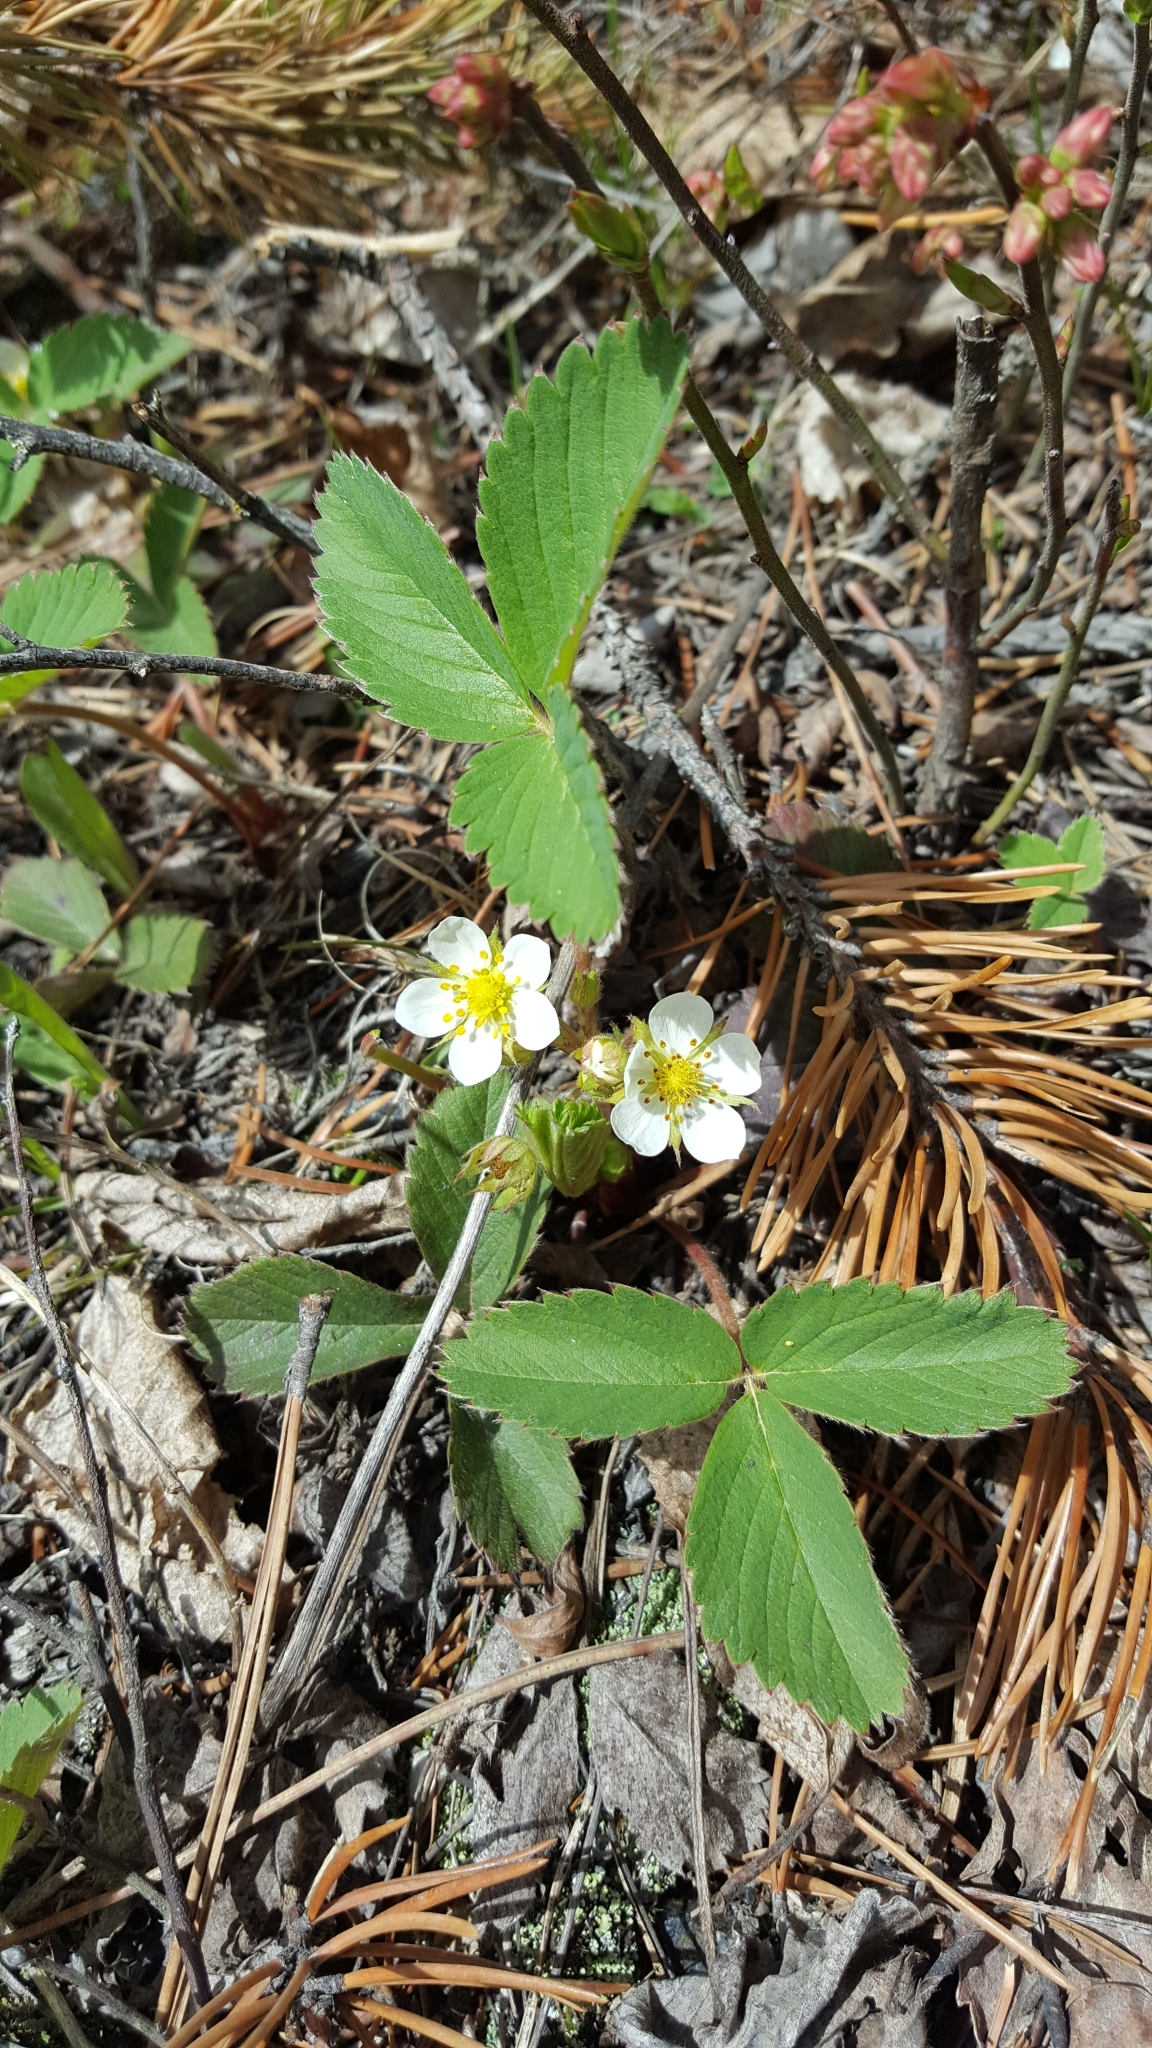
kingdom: Plantae
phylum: Tracheophyta
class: Magnoliopsida
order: Rosales
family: Rosaceae
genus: Fragaria
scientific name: Fragaria virginiana
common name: Thickleaved wild strawberry
